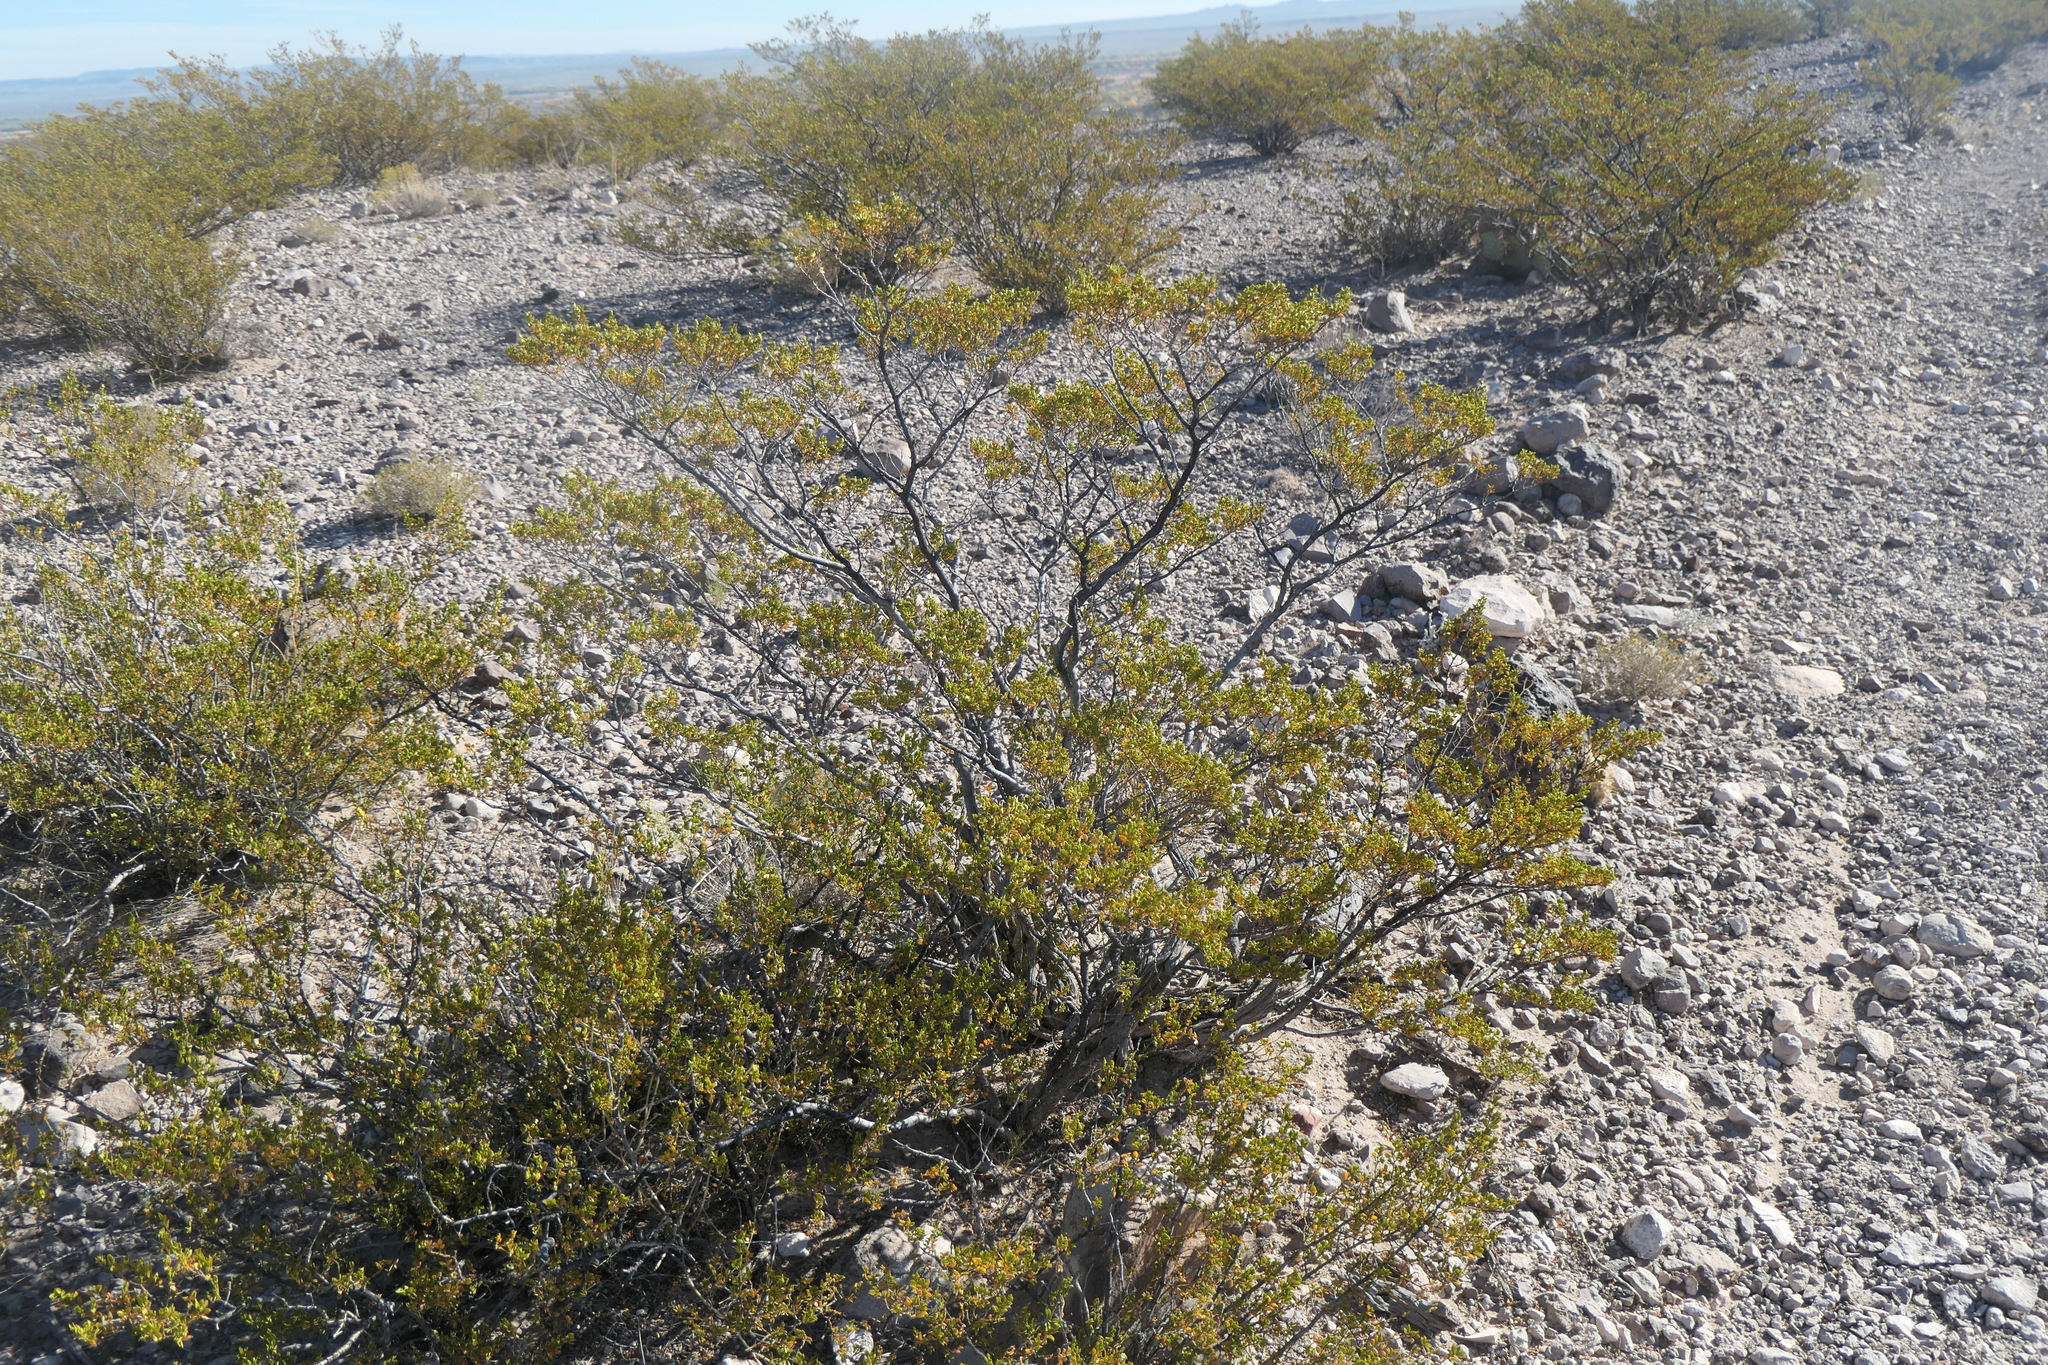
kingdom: Plantae
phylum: Tracheophyta
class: Magnoliopsida
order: Zygophyllales
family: Zygophyllaceae
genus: Larrea
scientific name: Larrea tridentata
